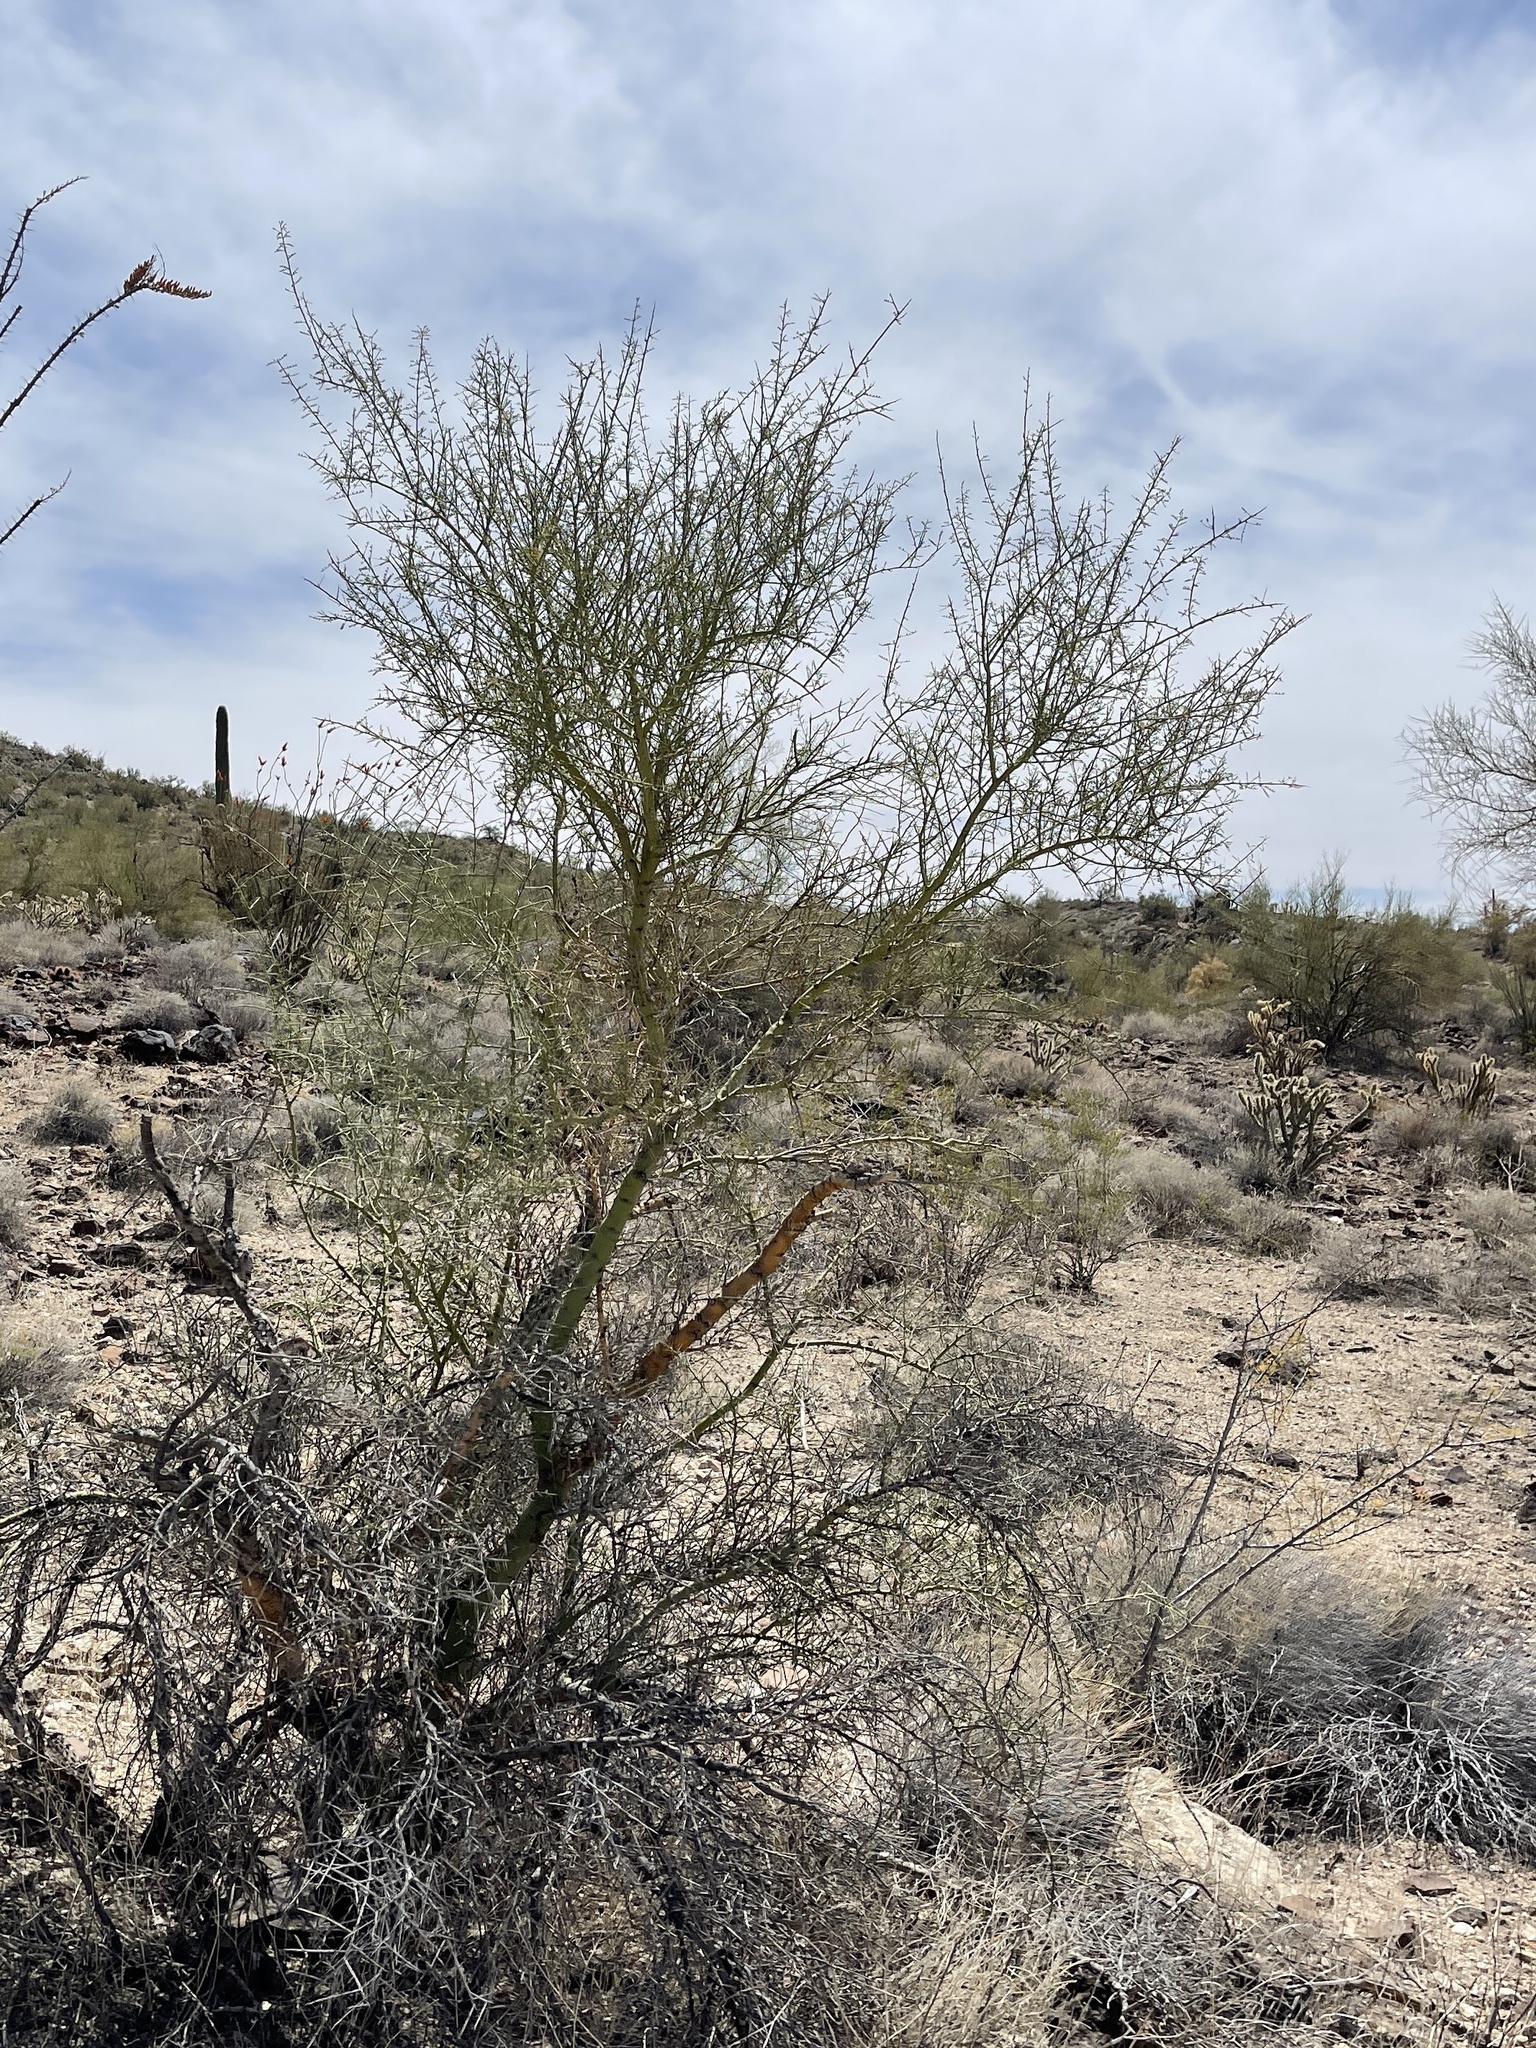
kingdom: Plantae
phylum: Tracheophyta
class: Magnoliopsida
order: Fabales
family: Fabaceae
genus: Parkinsonia
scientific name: Parkinsonia microphylla
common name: Yellow paloverde
